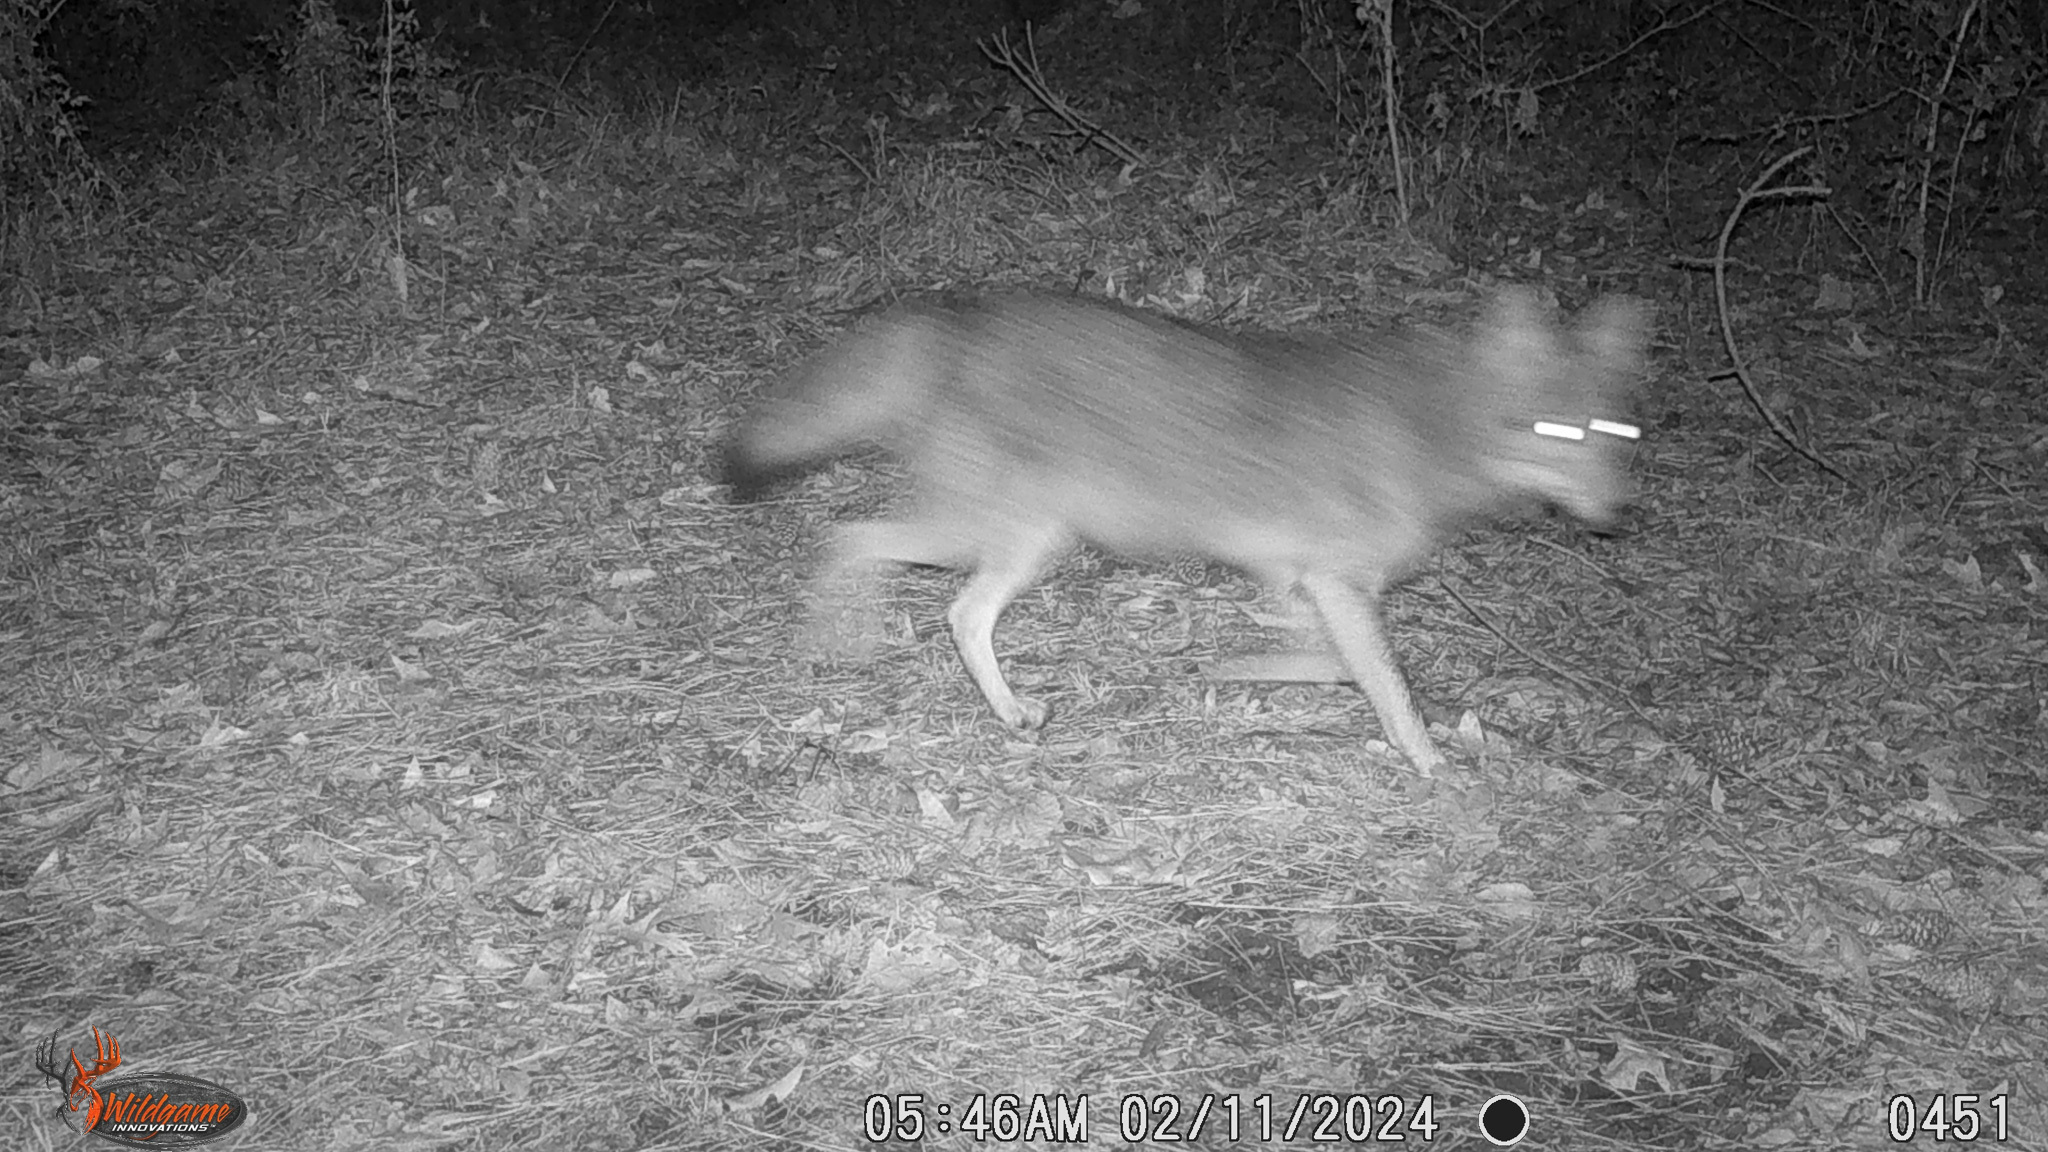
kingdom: Animalia
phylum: Chordata
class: Mammalia
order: Carnivora
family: Canidae
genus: Canis
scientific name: Canis latrans
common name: Coyote
